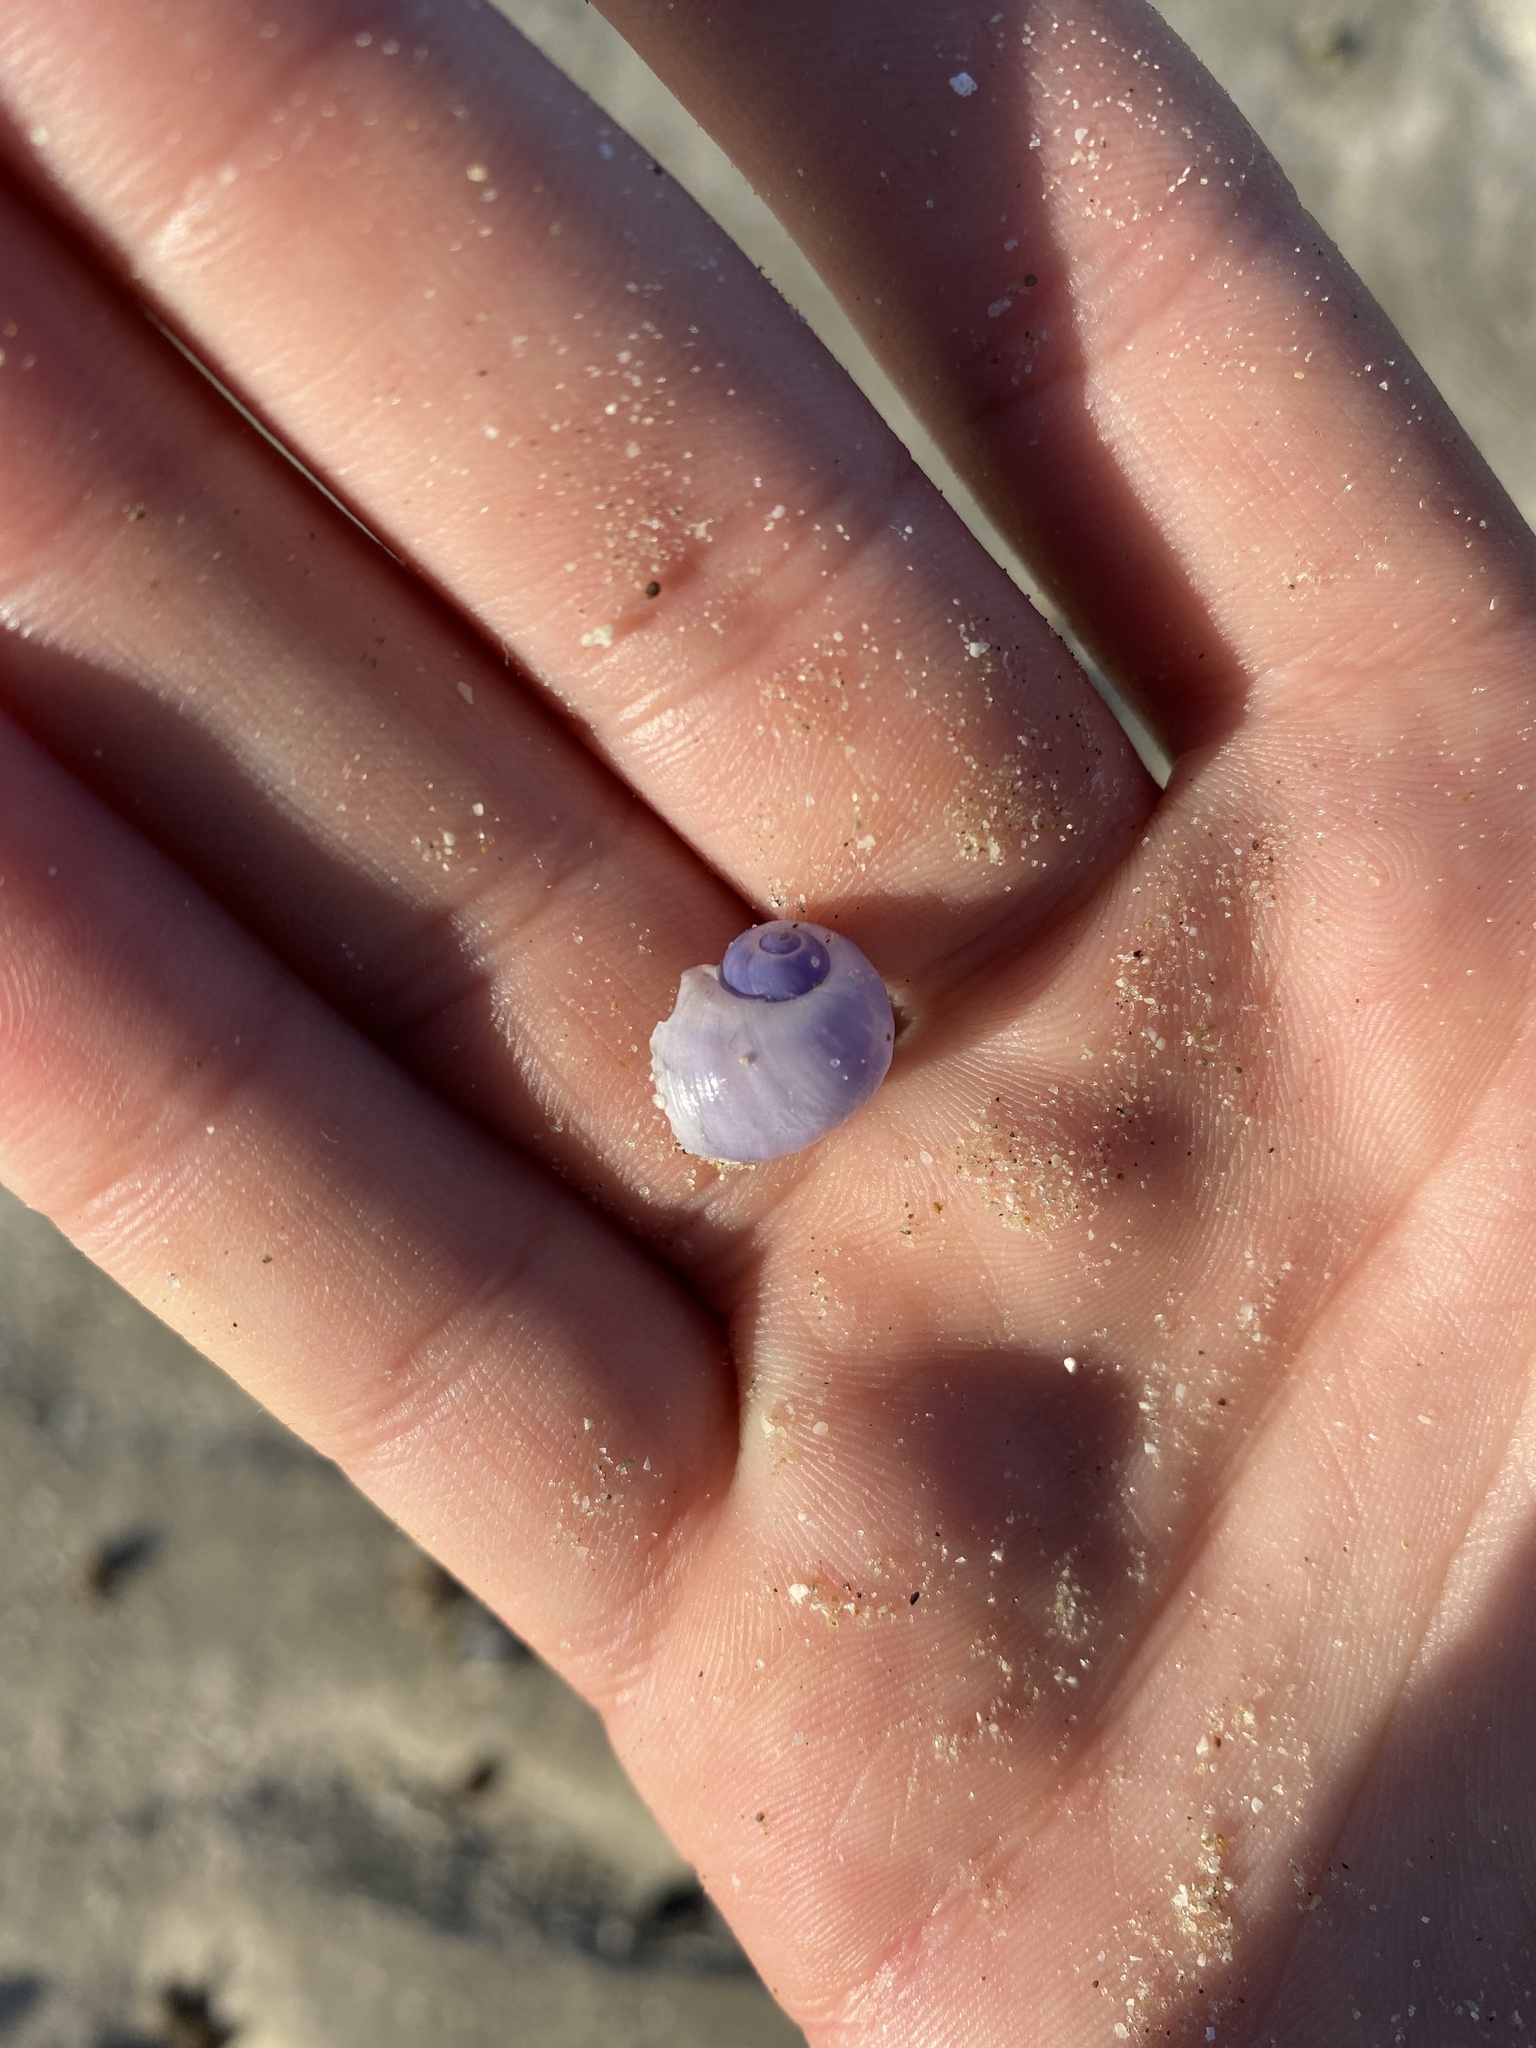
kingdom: Animalia
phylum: Mollusca
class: Gastropoda
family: Epitoniidae
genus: Janthina
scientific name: Janthina globosa
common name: Elongate janthina
